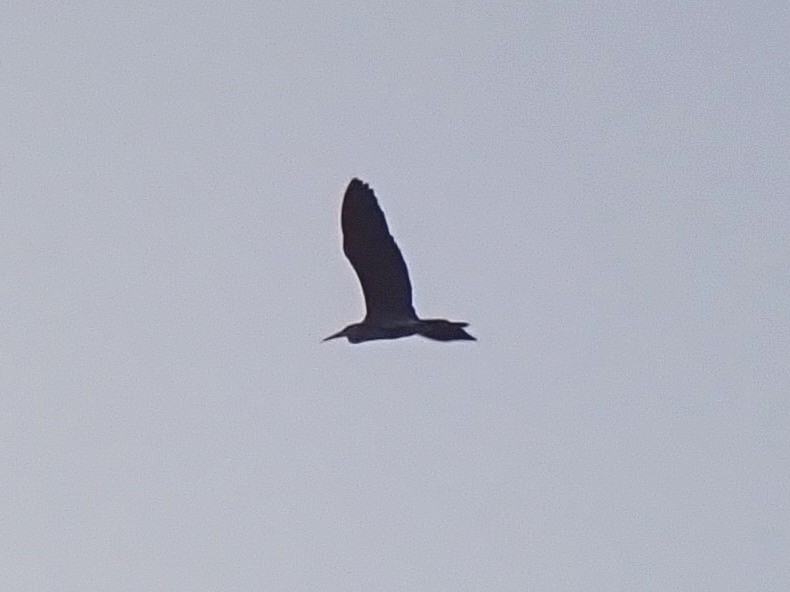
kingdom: Animalia
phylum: Chordata
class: Aves
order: Pelecaniformes
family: Ardeidae
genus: Ardea
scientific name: Ardea cinerea
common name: Grey heron
